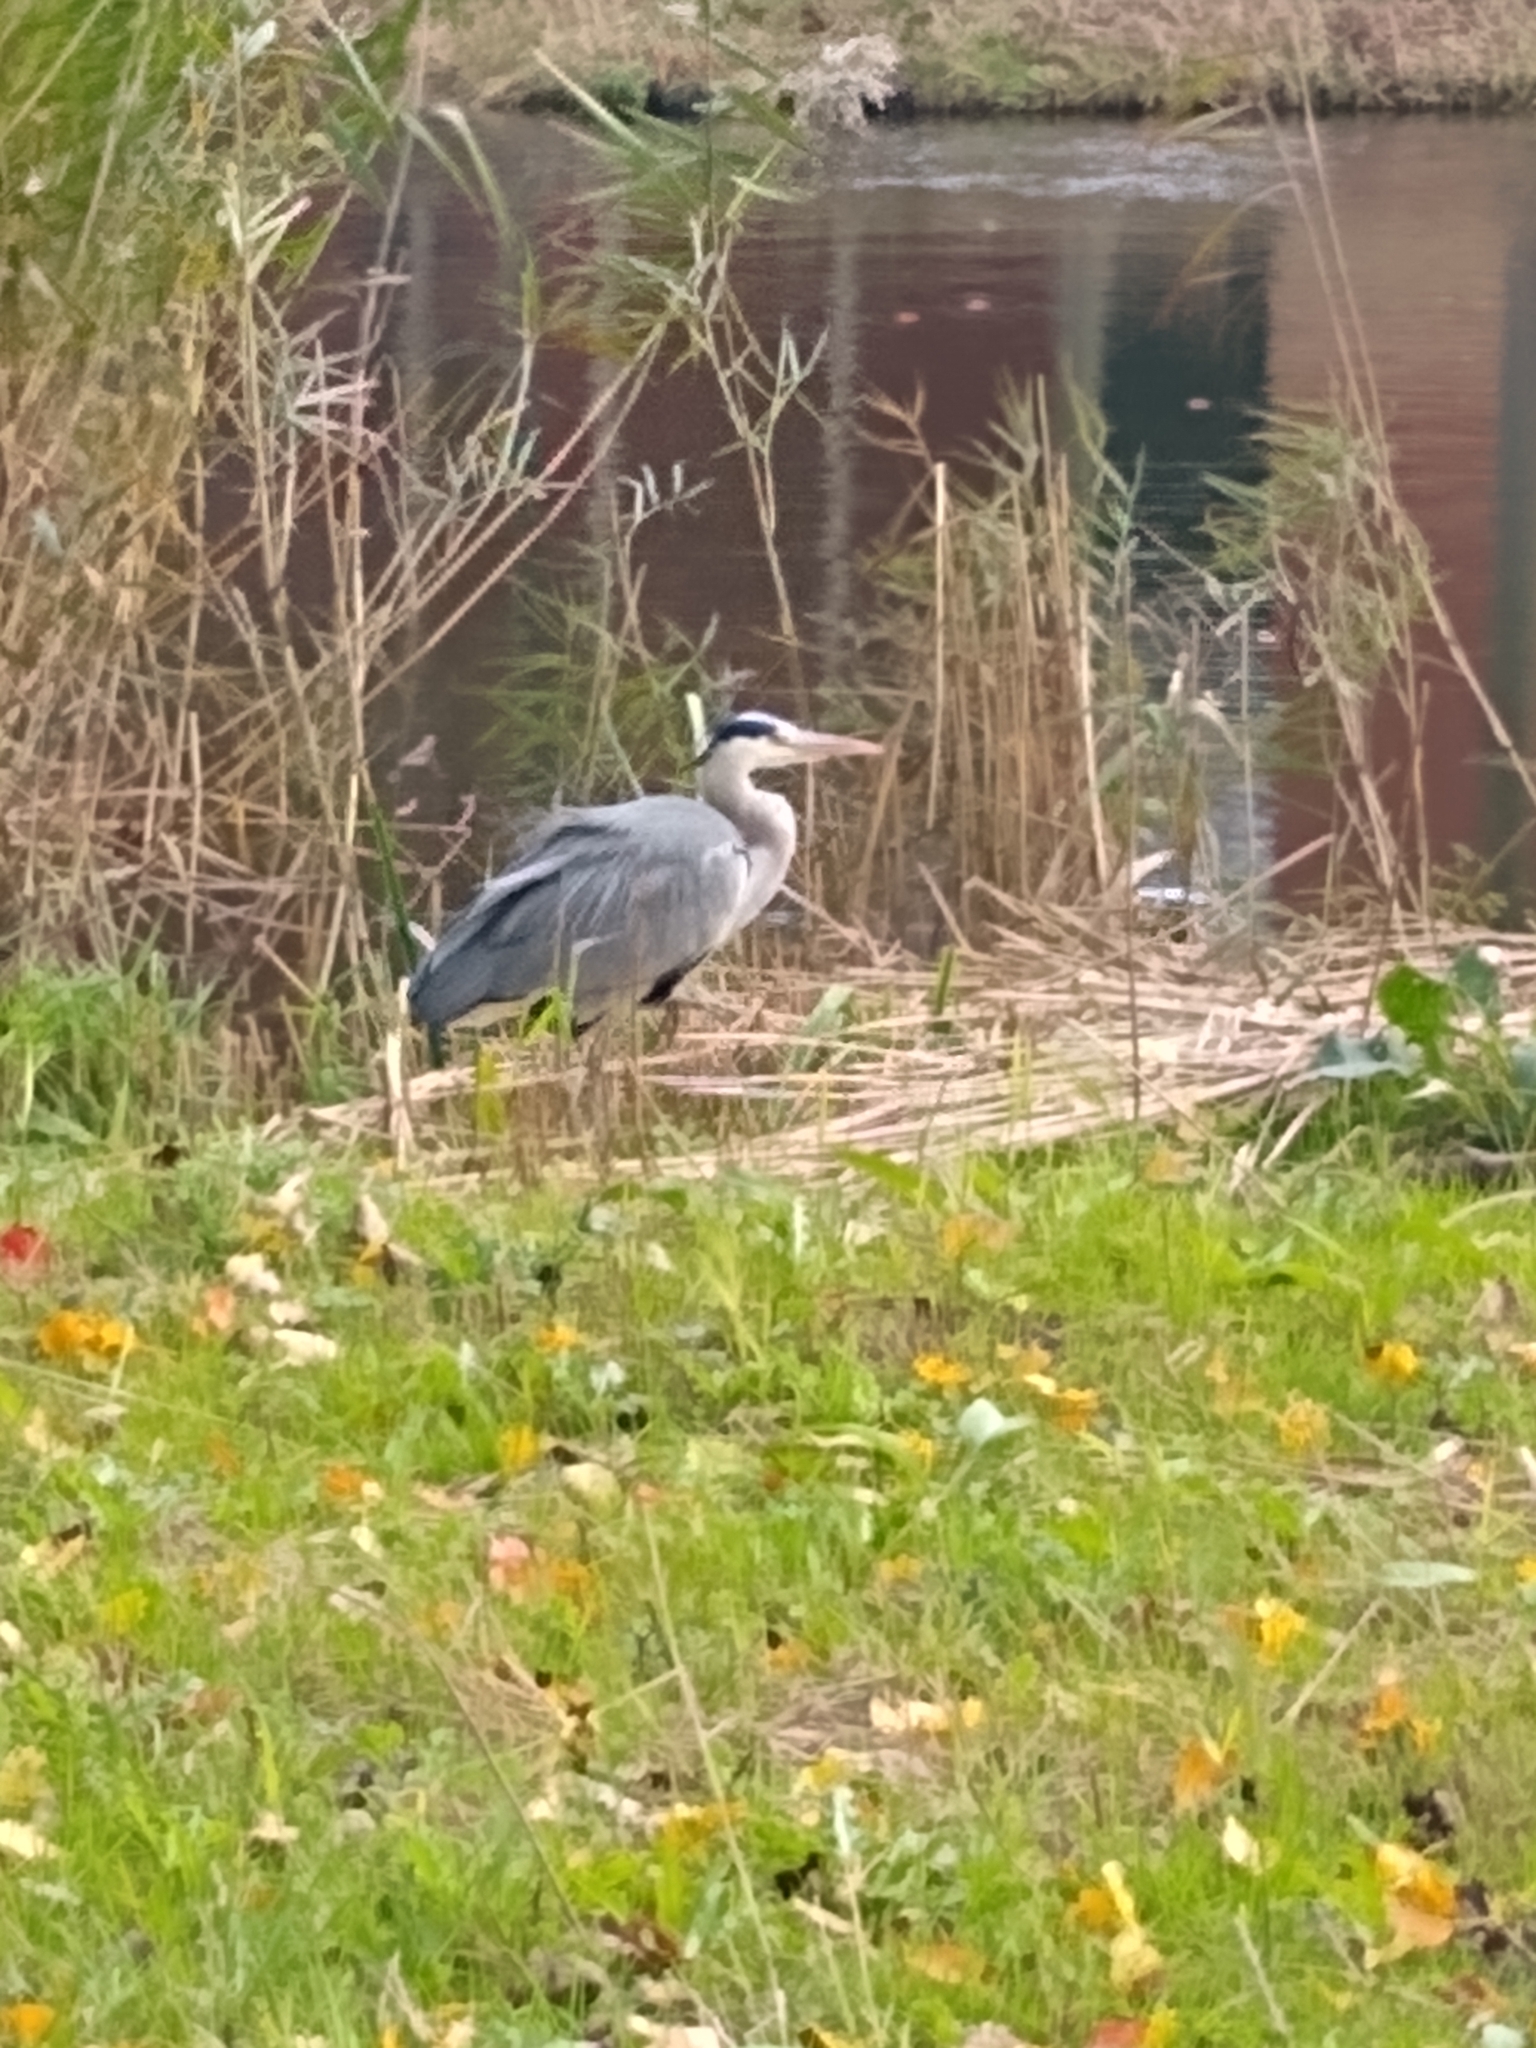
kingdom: Animalia
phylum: Chordata
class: Aves
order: Pelecaniformes
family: Ardeidae
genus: Ardea
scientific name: Ardea cinerea
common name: Grey heron
